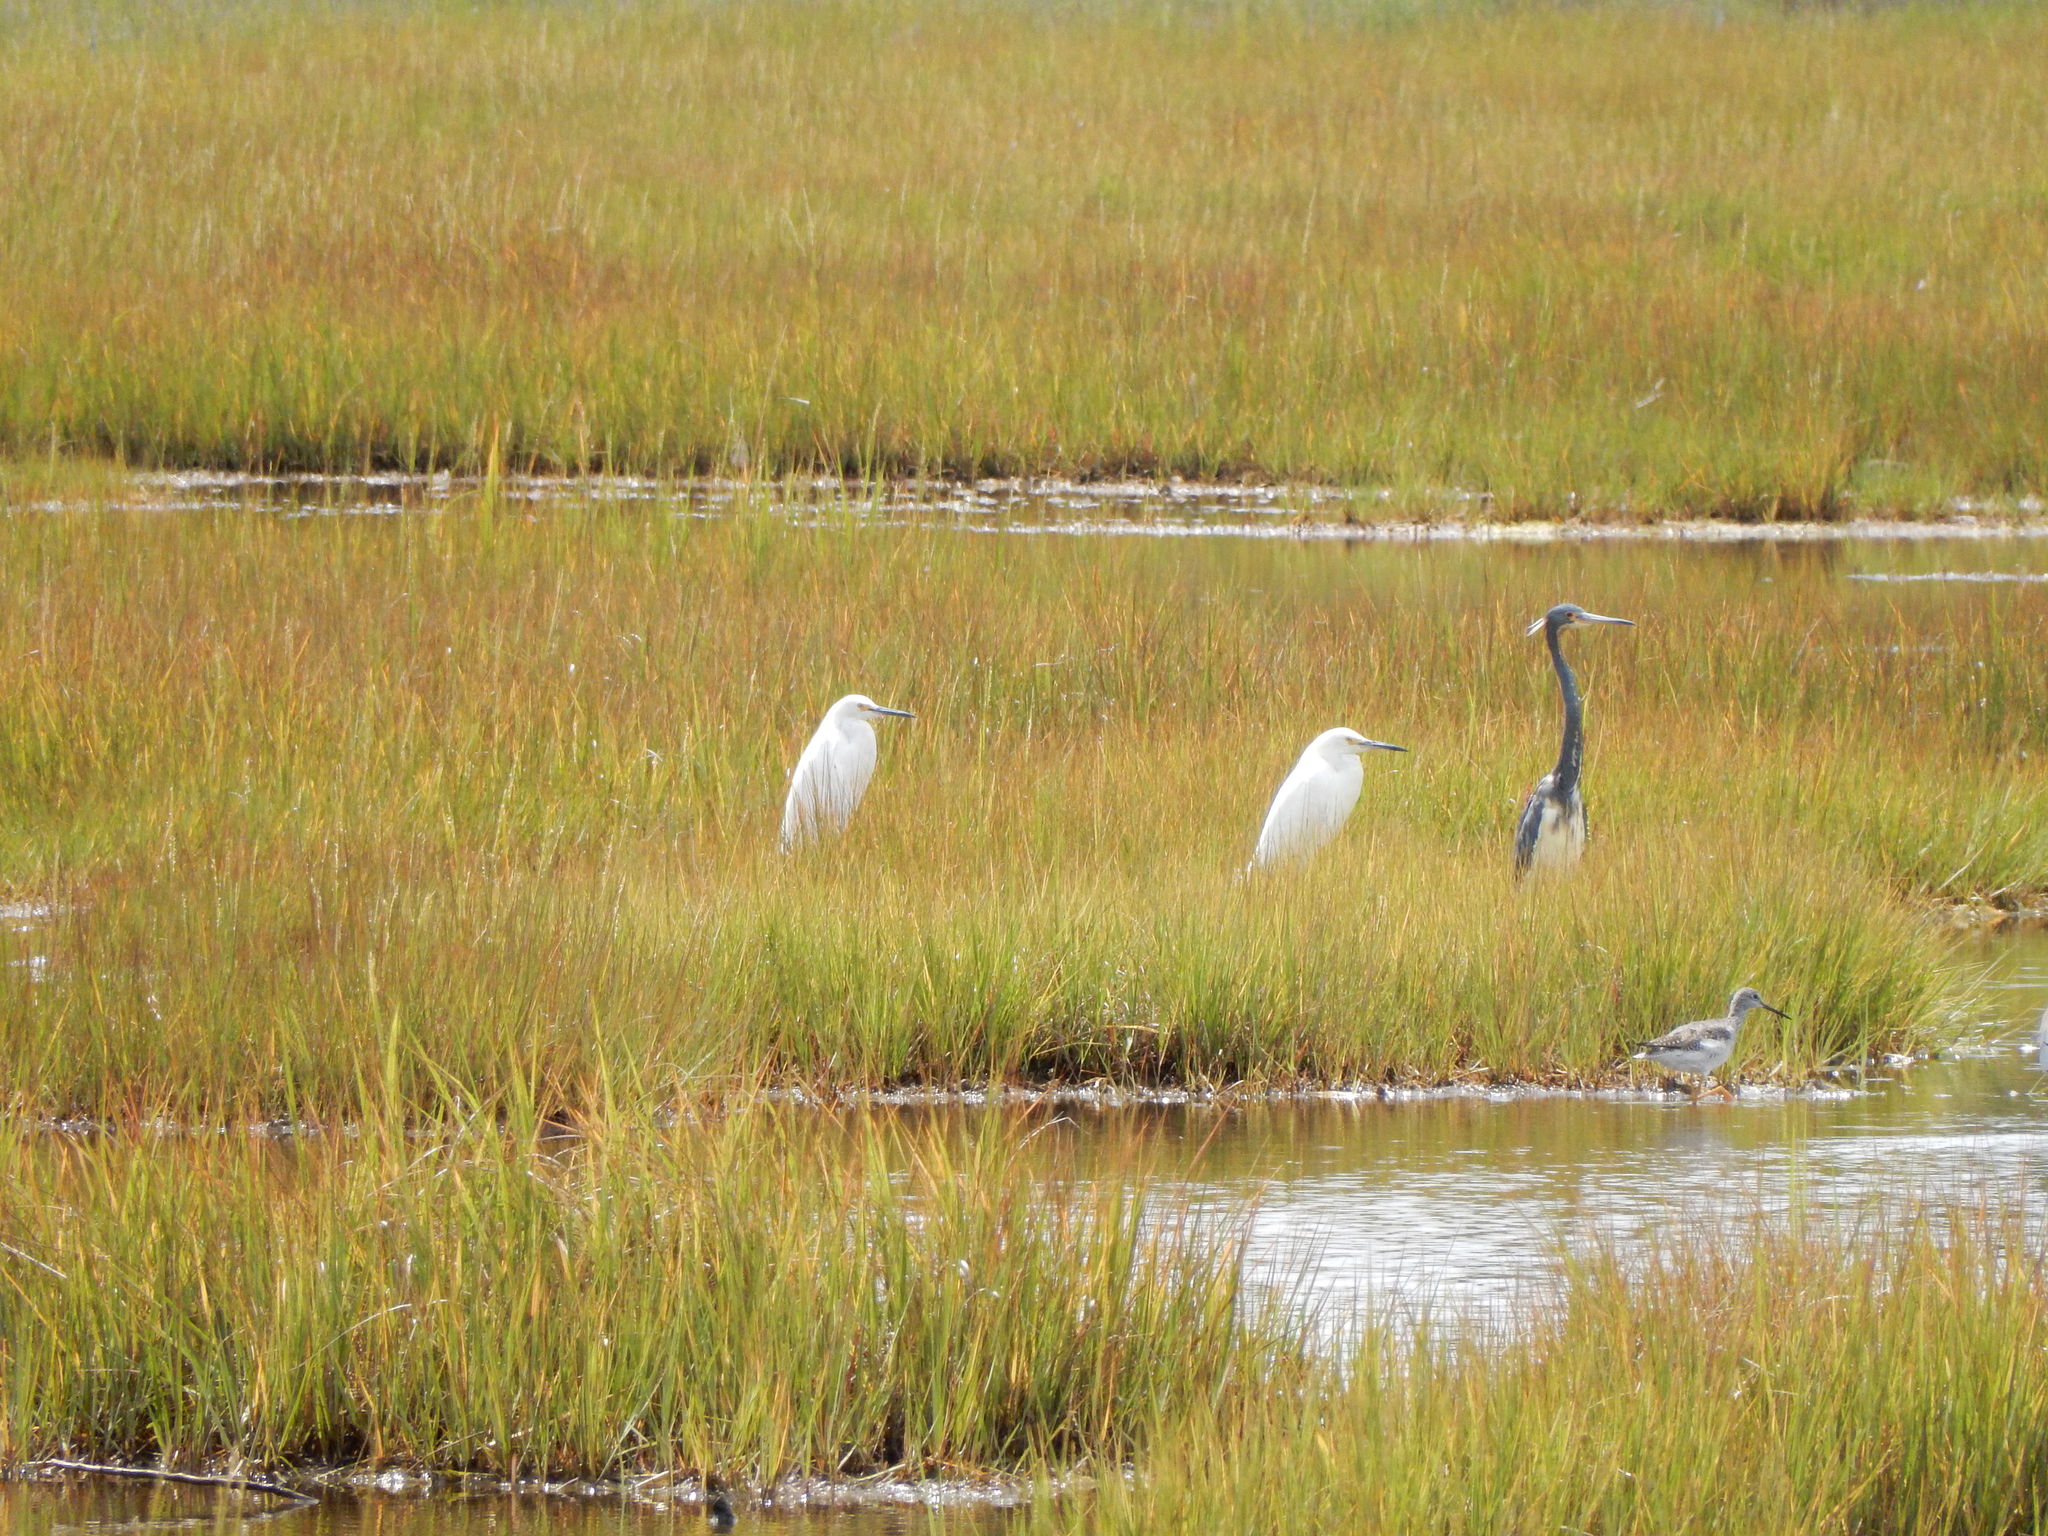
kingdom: Animalia
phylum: Chordata
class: Aves
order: Charadriiformes
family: Scolopacidae
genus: Tringa
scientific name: Tringa melanoleuca
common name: Greater yellowlegs
